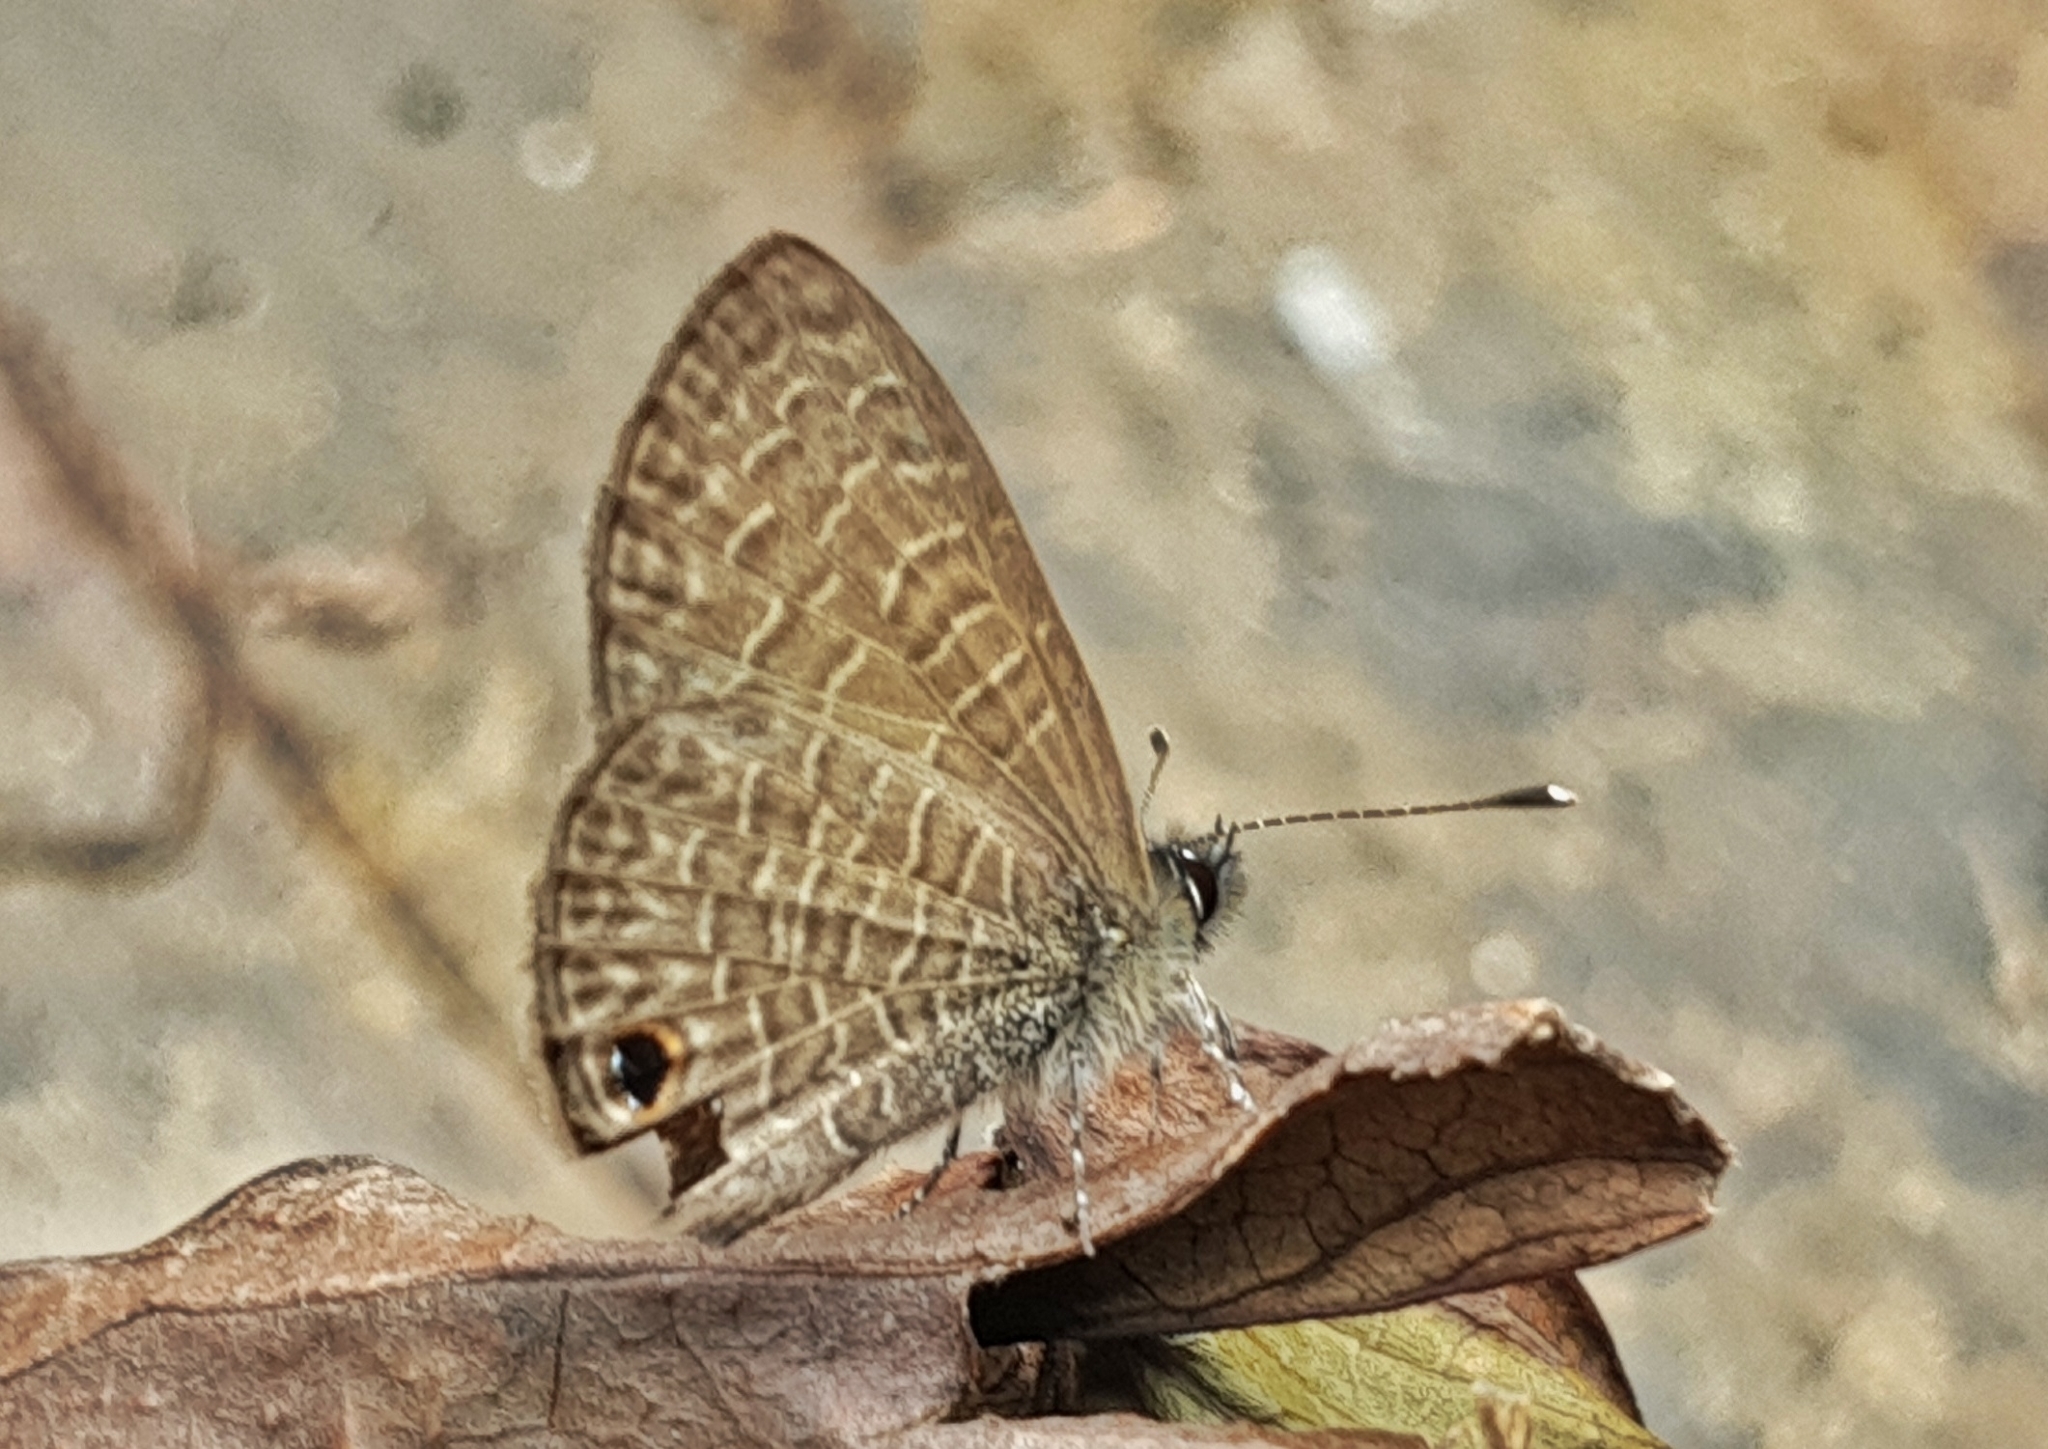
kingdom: Animalia
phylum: Arthropoda
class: Insecta
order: Lepidoptera
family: Lycaenidae
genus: Prosotas
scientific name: Prosotas dubiosa
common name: Tailless lineblue
